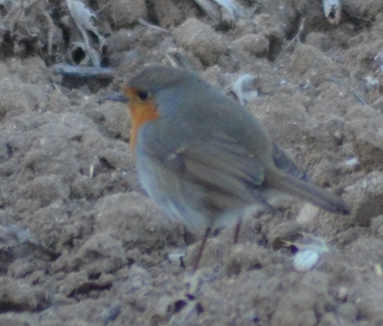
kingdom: Animalia
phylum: Chordata
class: Aves
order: Passeriformes
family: Muscicapidae
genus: Erithacus
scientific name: Erithacus rubecula
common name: European robin
